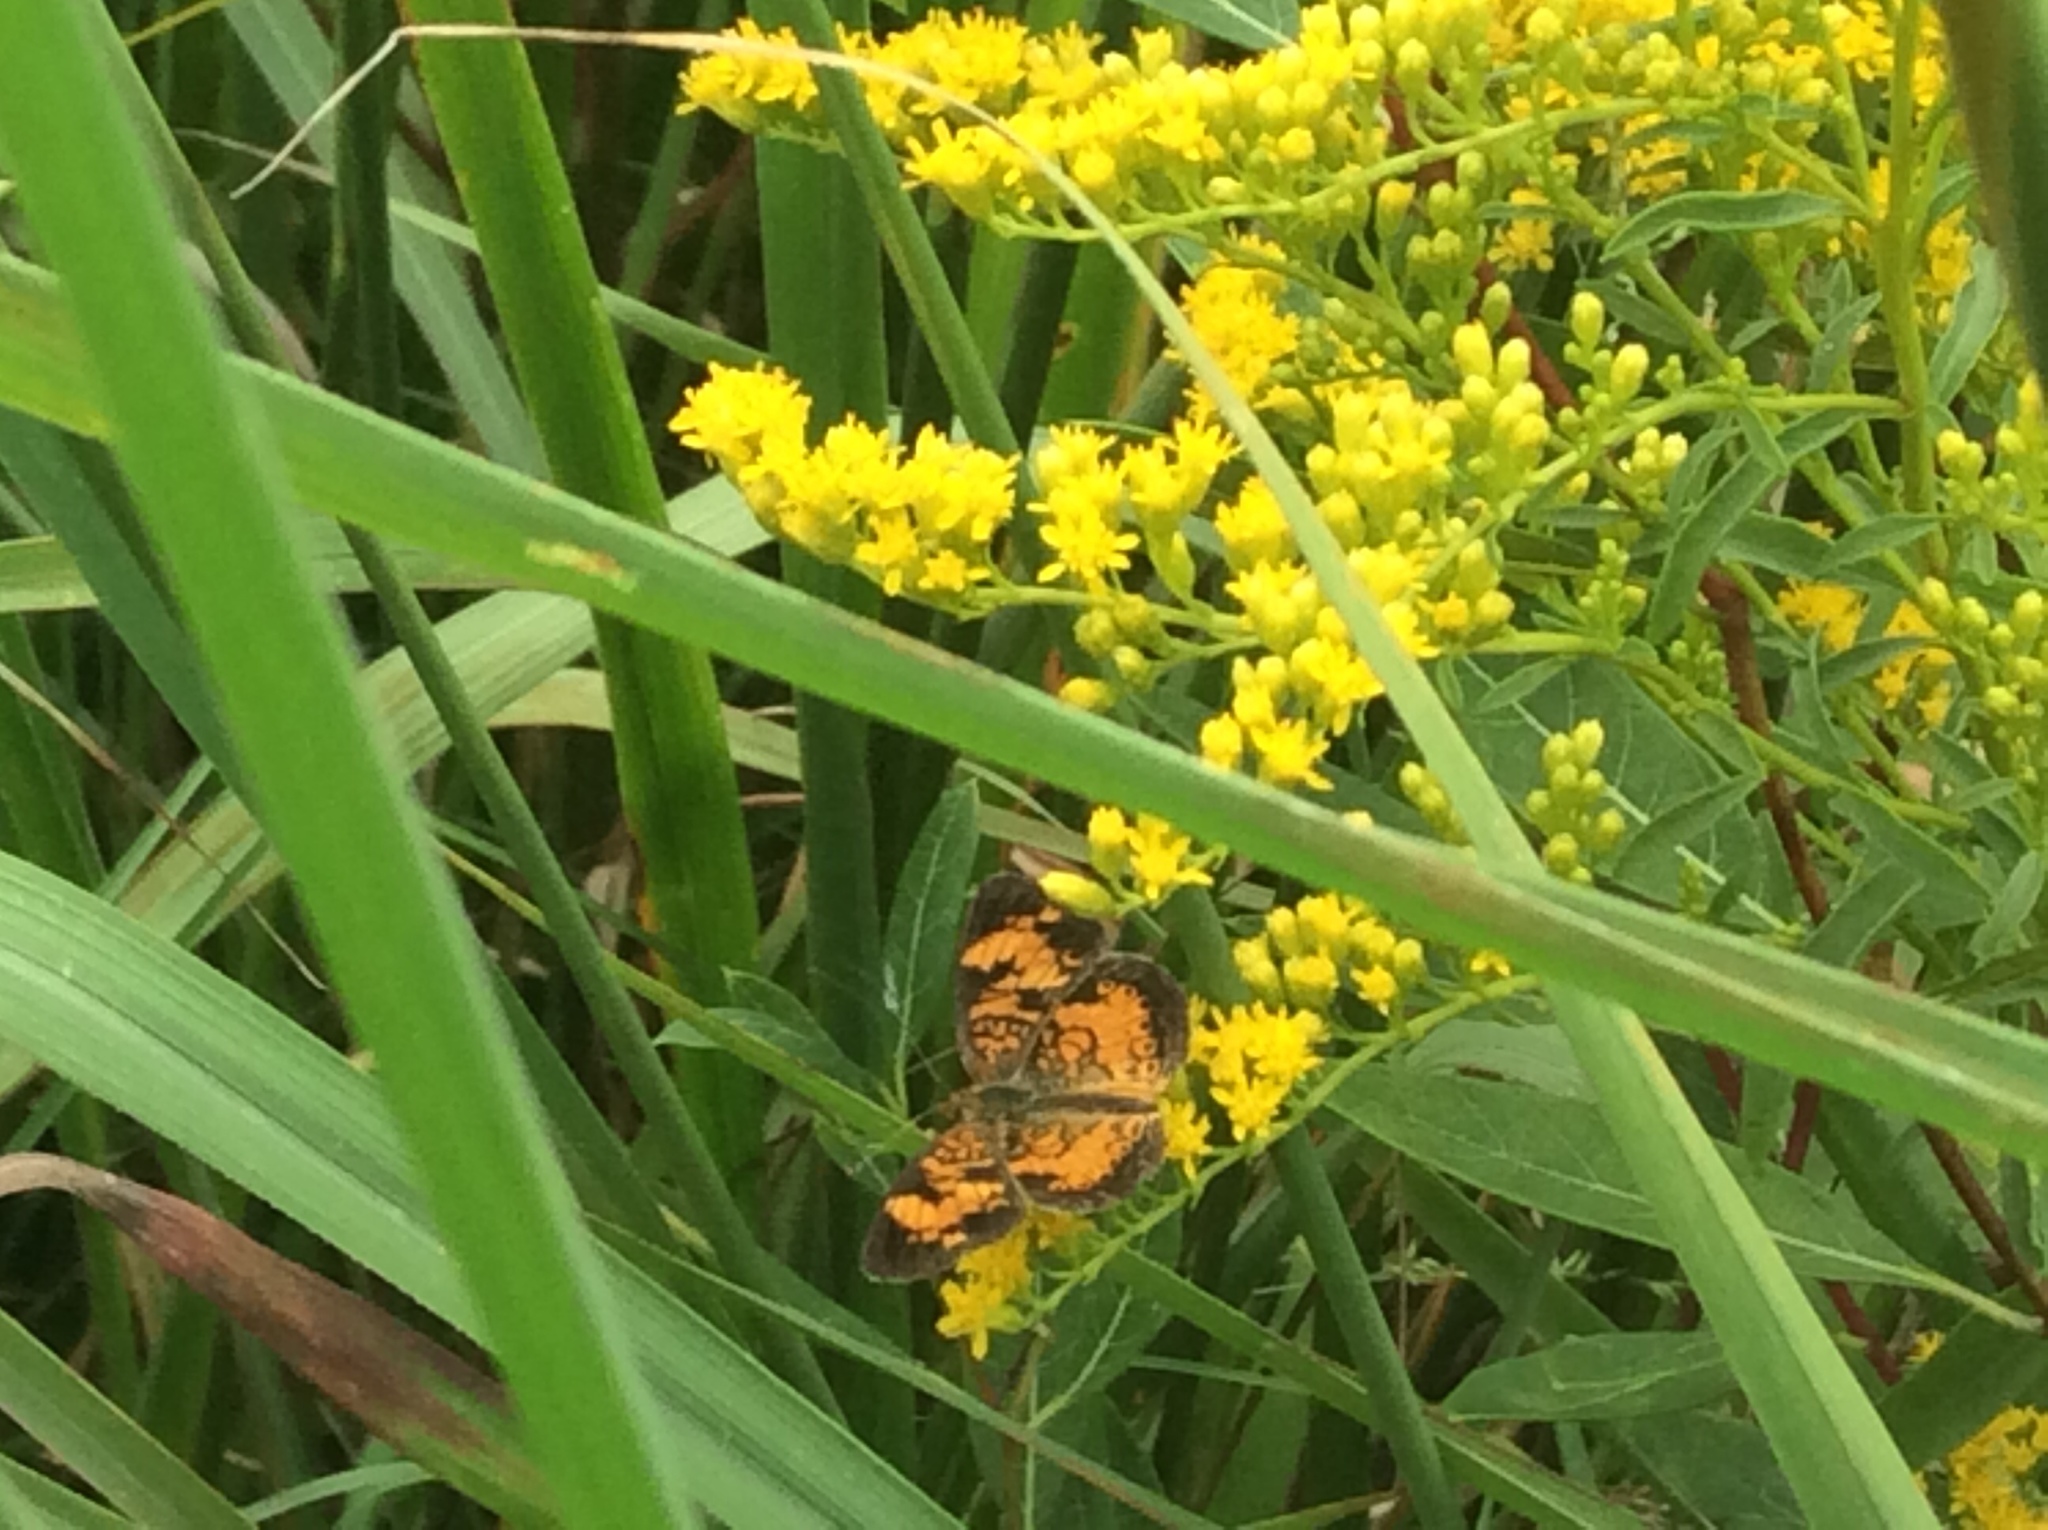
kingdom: Animalia
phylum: Arthropoda
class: Insecta
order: Lepidoptera
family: Nymphalidae
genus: Phyciodes
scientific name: Phyciodes tharos
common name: Pearl crescent
